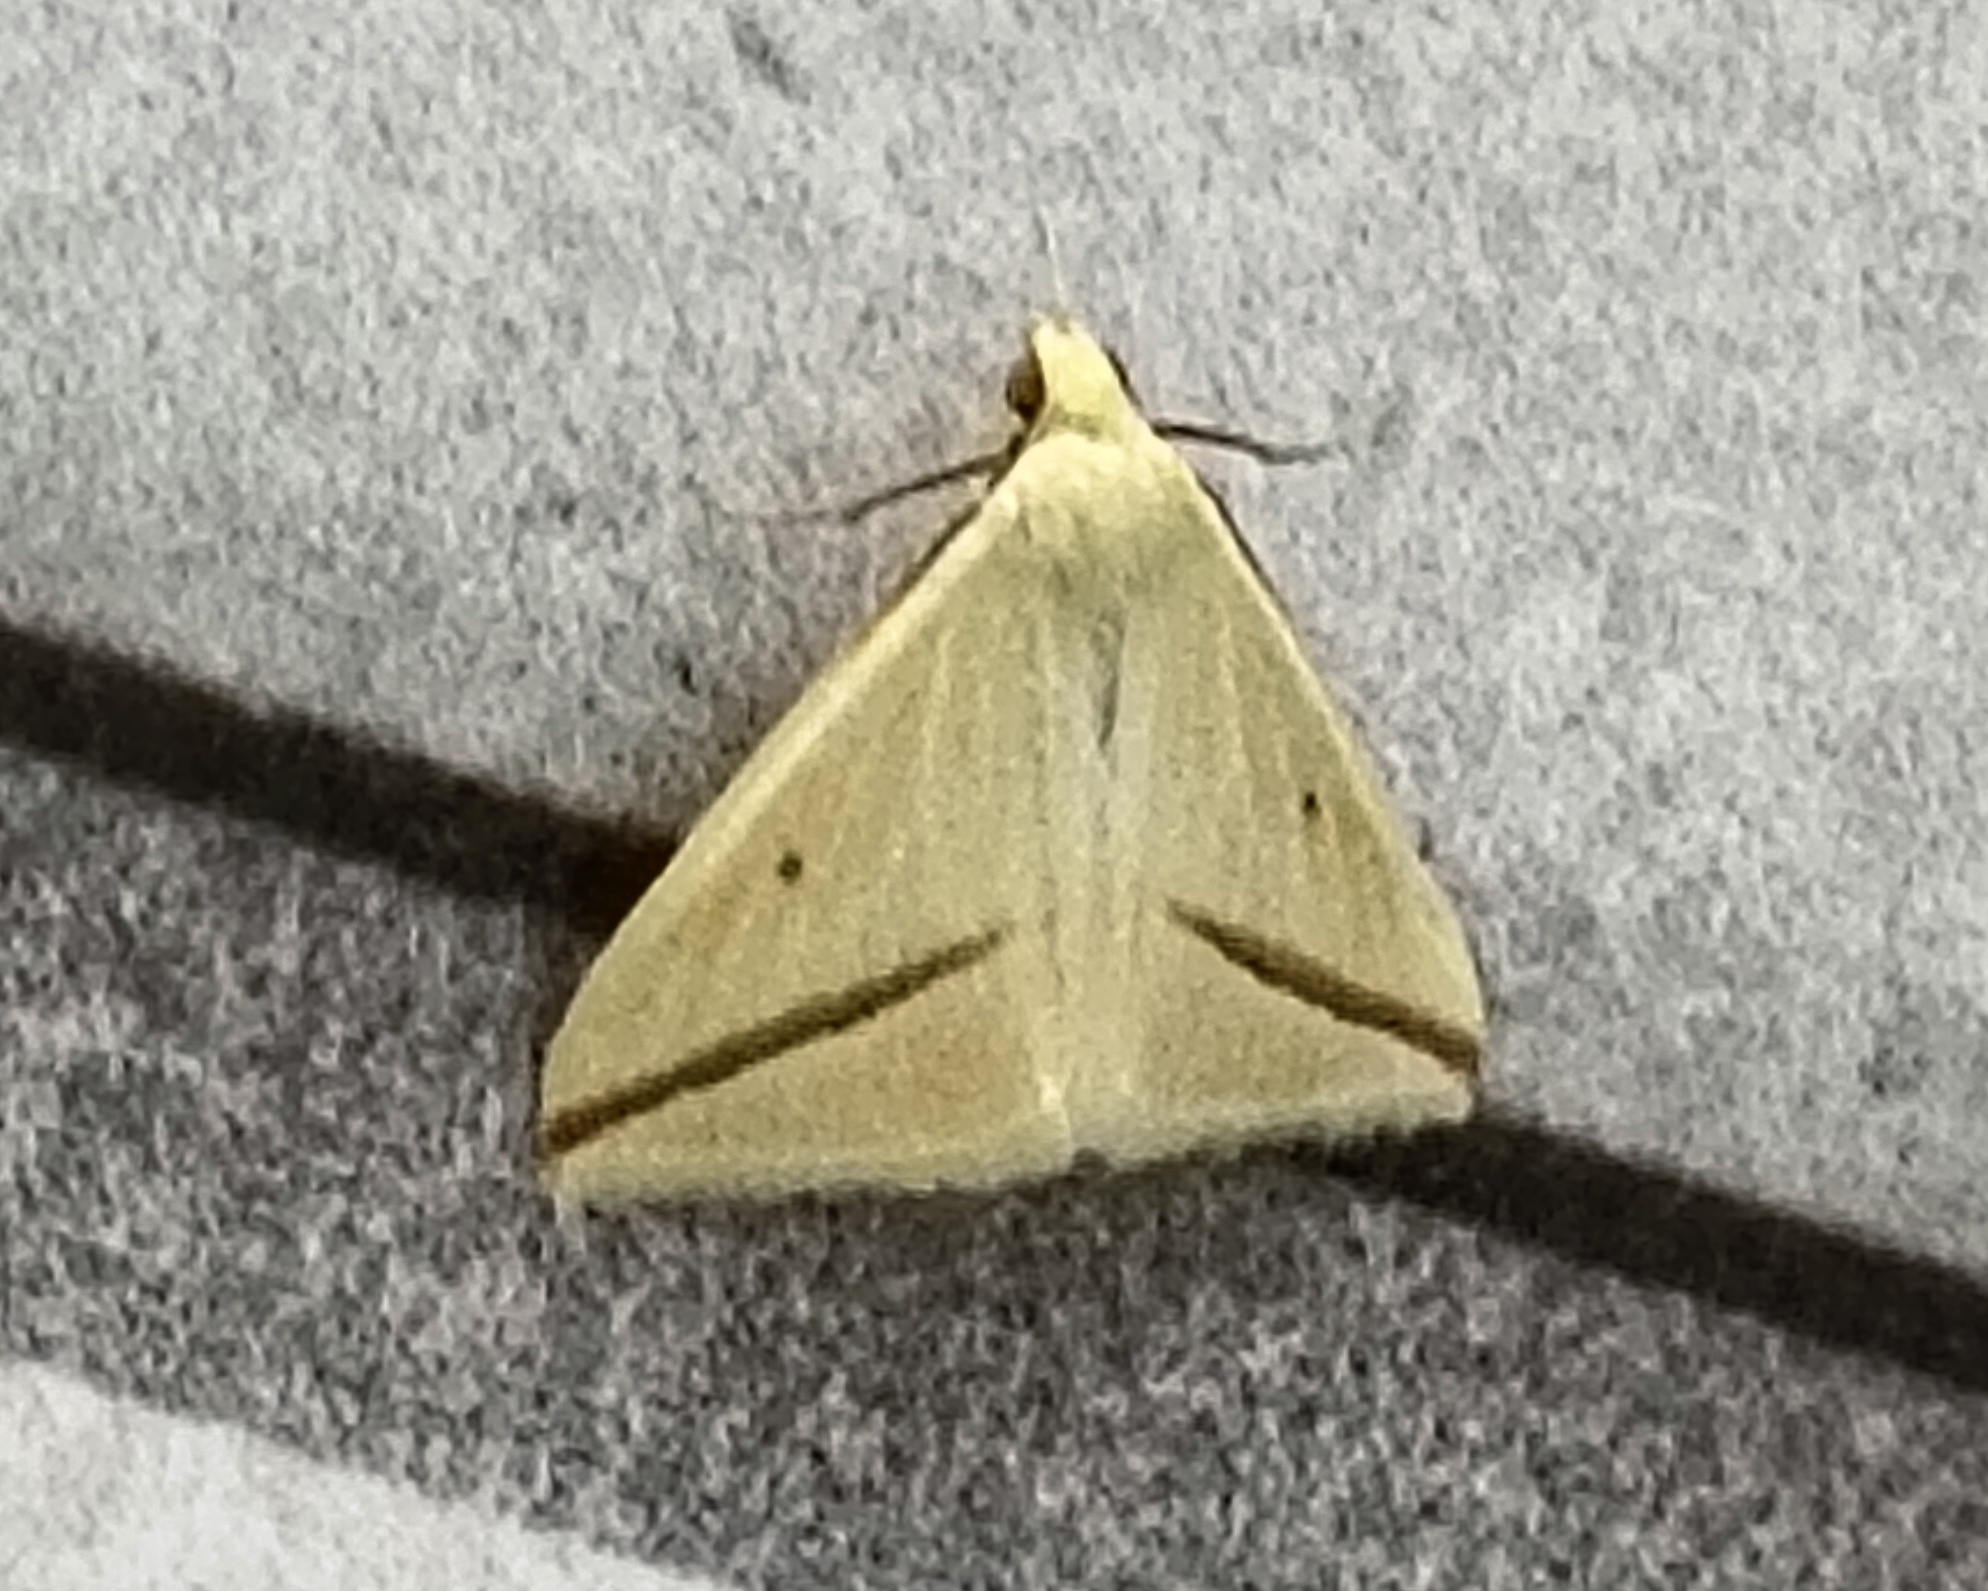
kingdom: Animalia
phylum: Arthropoda
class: Insecta
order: Lepidoptera
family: Geometridae
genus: Rhodometra
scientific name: Rhodometra sacraria
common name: Vestal
